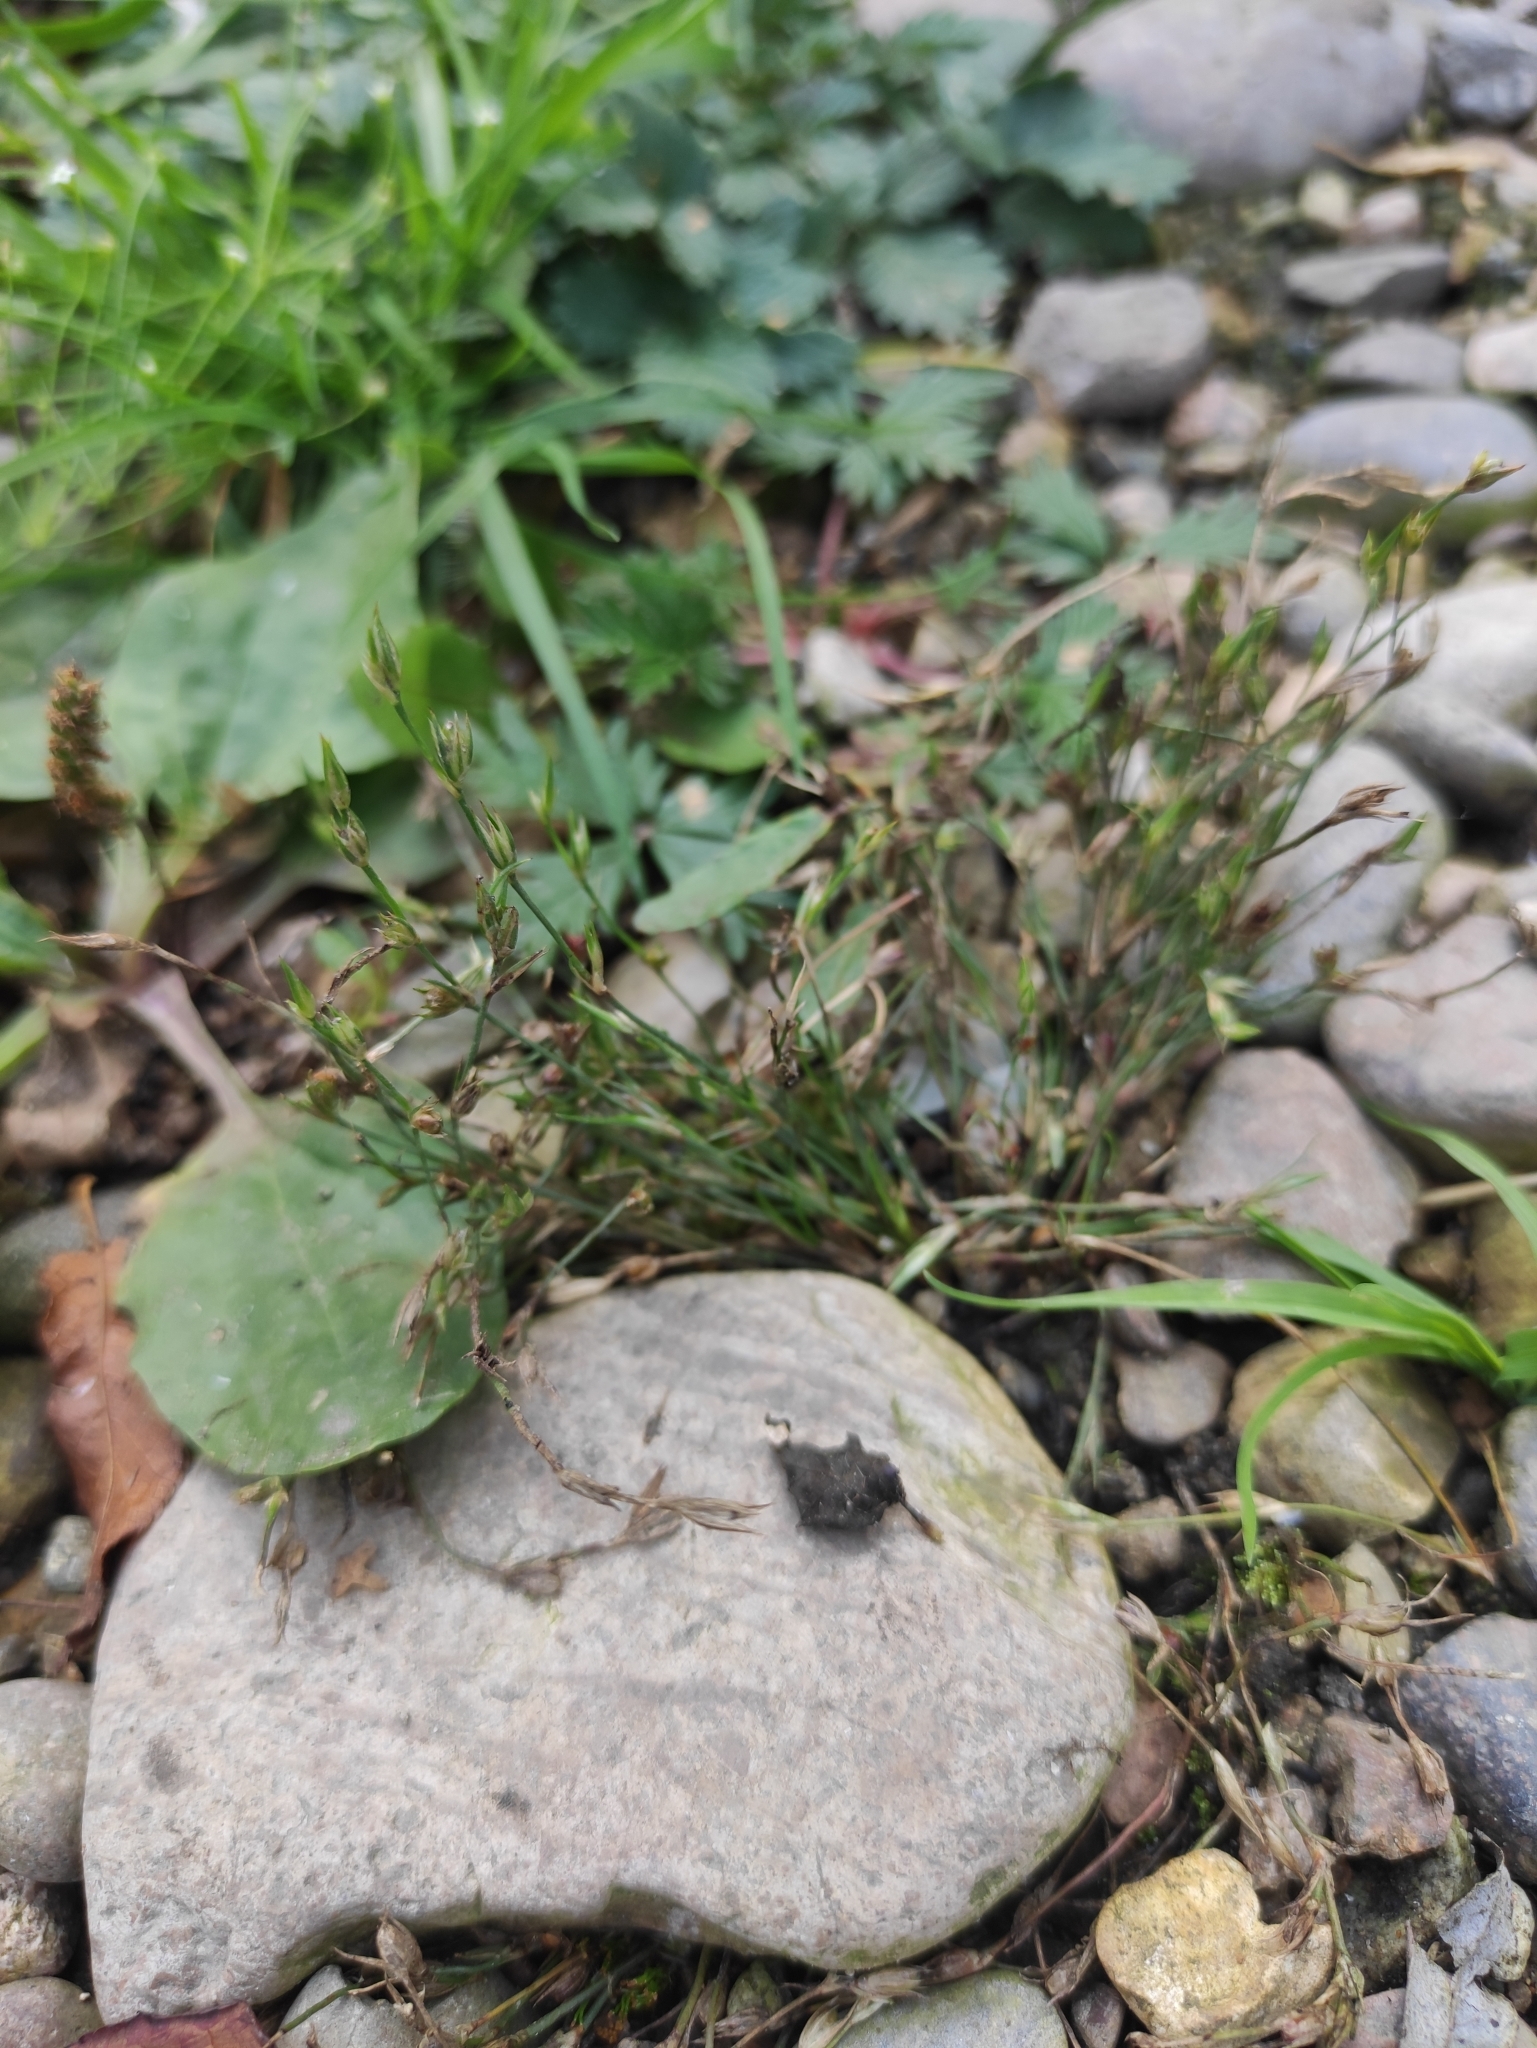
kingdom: Plantae
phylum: Tracheophyta
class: Liliopsida
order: Poales
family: Juncaceae
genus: Juncus
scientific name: Juncus bufonius
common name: Toad rush
